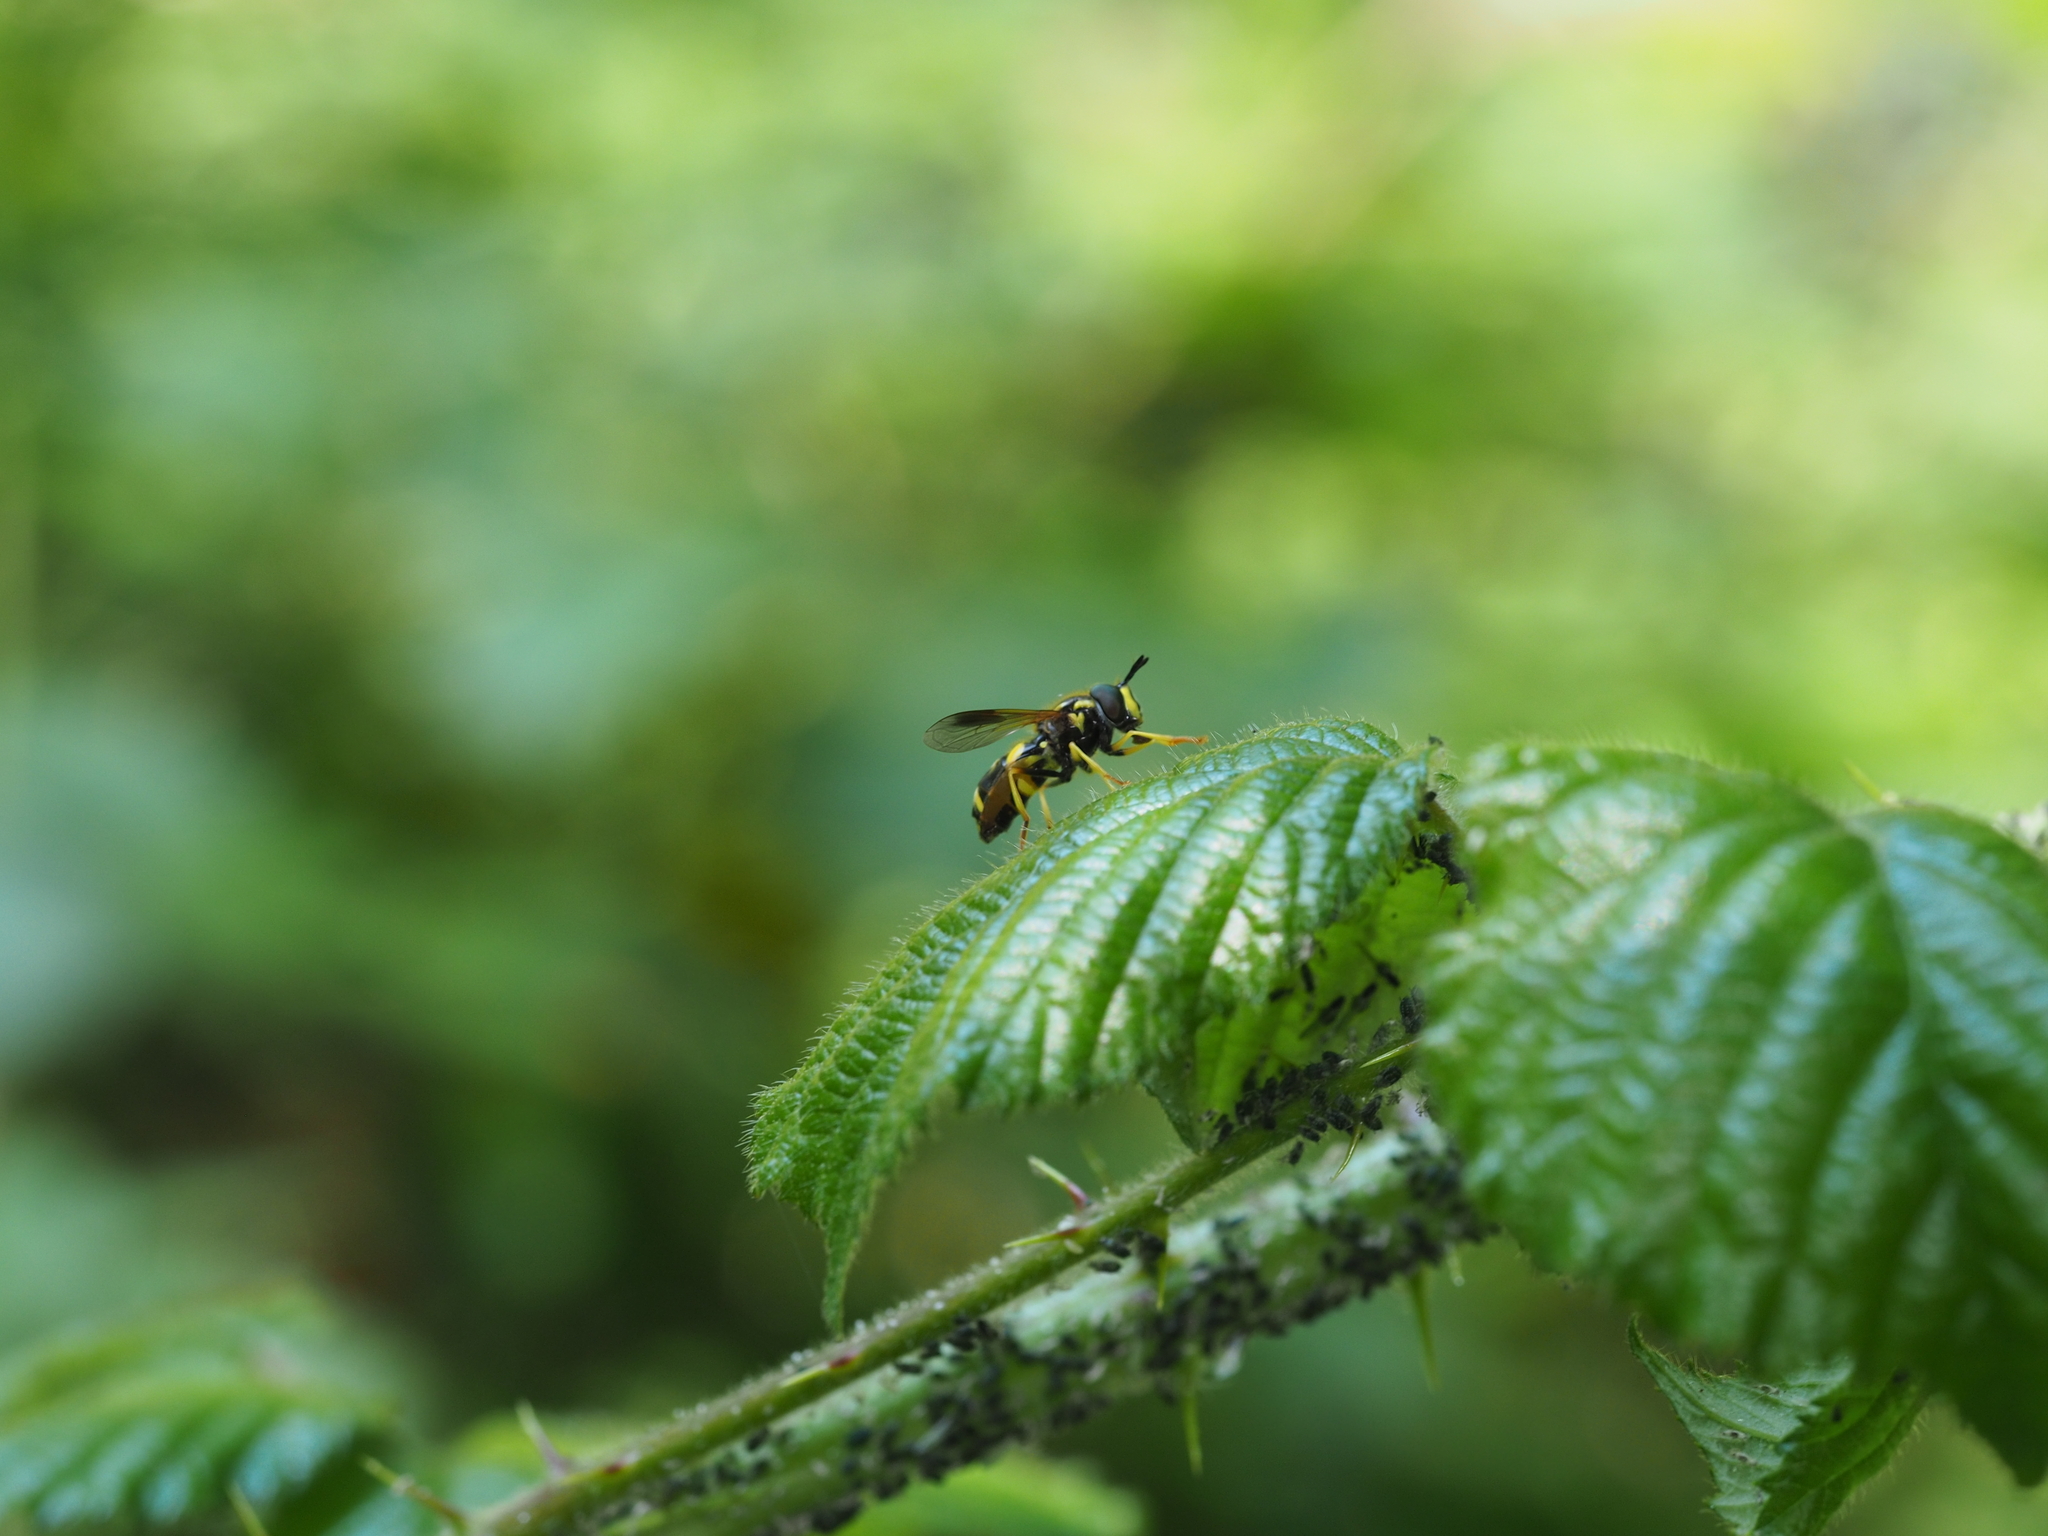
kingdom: Animalia
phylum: Arthropoda
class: Insecta
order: Diptera
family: Syrphidae
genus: Chrysotoxum
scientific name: Chrysotoxum bicincta
